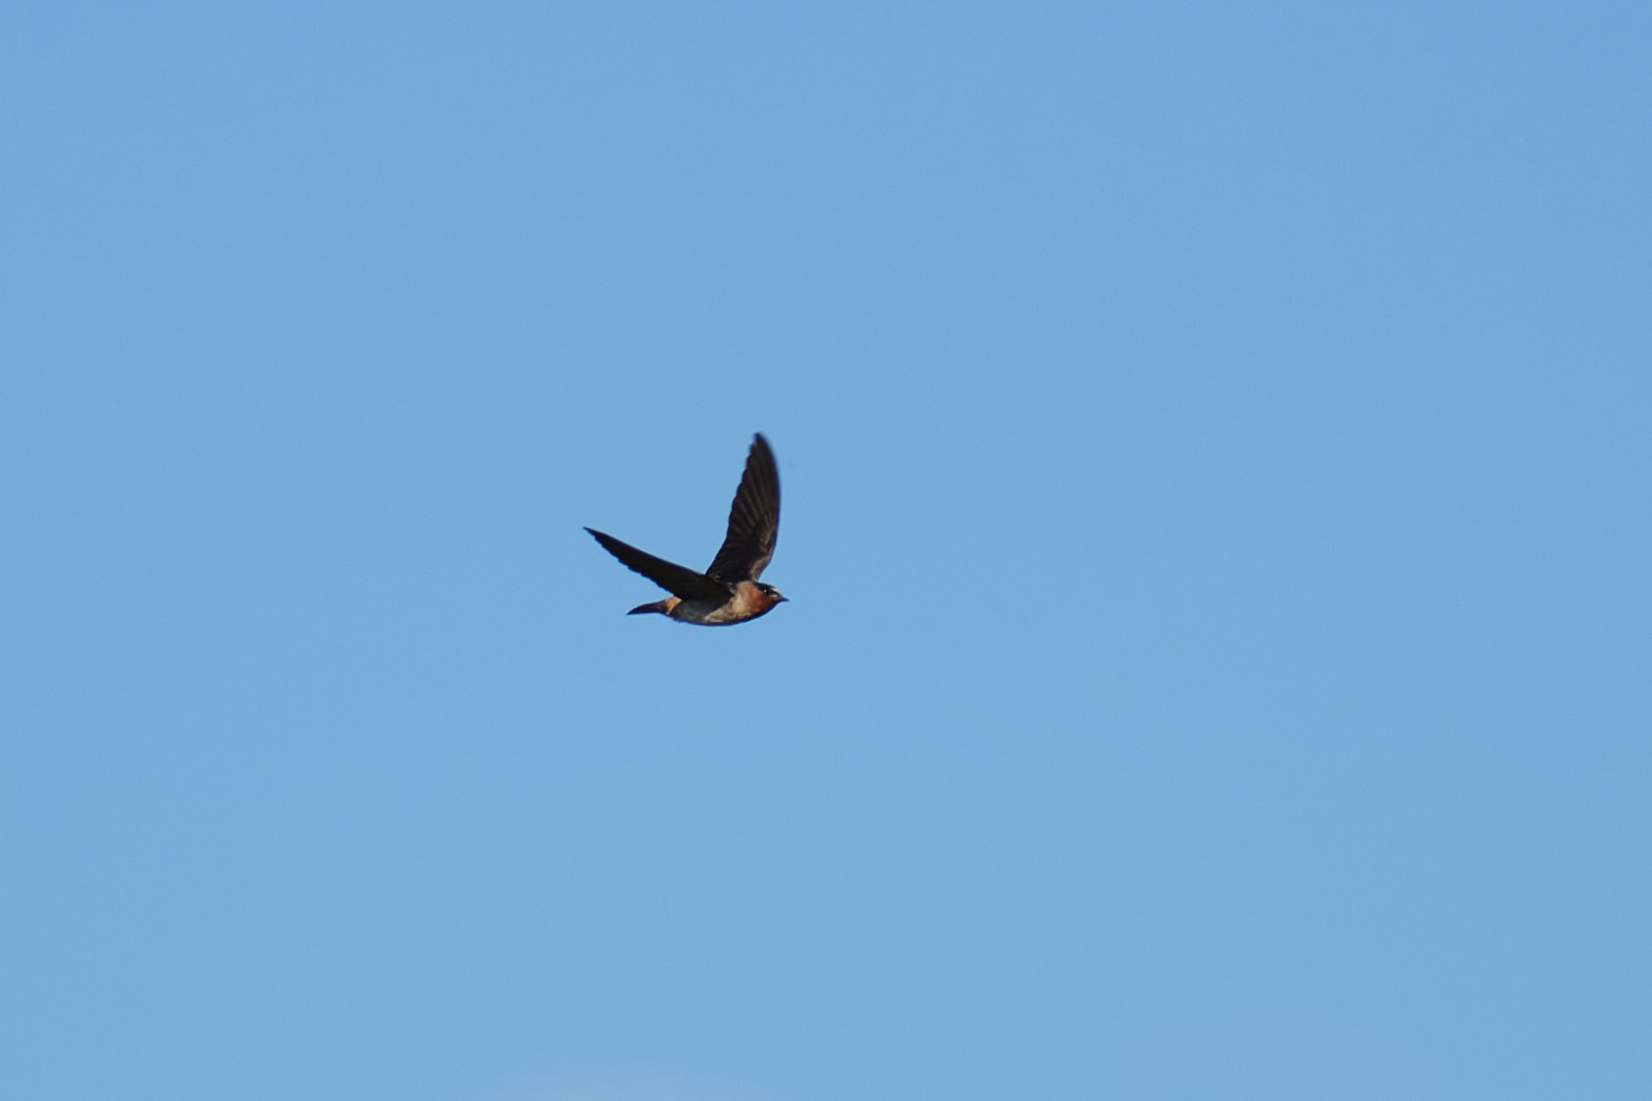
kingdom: Animalia
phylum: Chordata
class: Aves
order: Passeriformes
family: Hirundinidae
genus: Petrochelidon
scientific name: Petrochelidon pyrrhonota
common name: American cliff swallow
